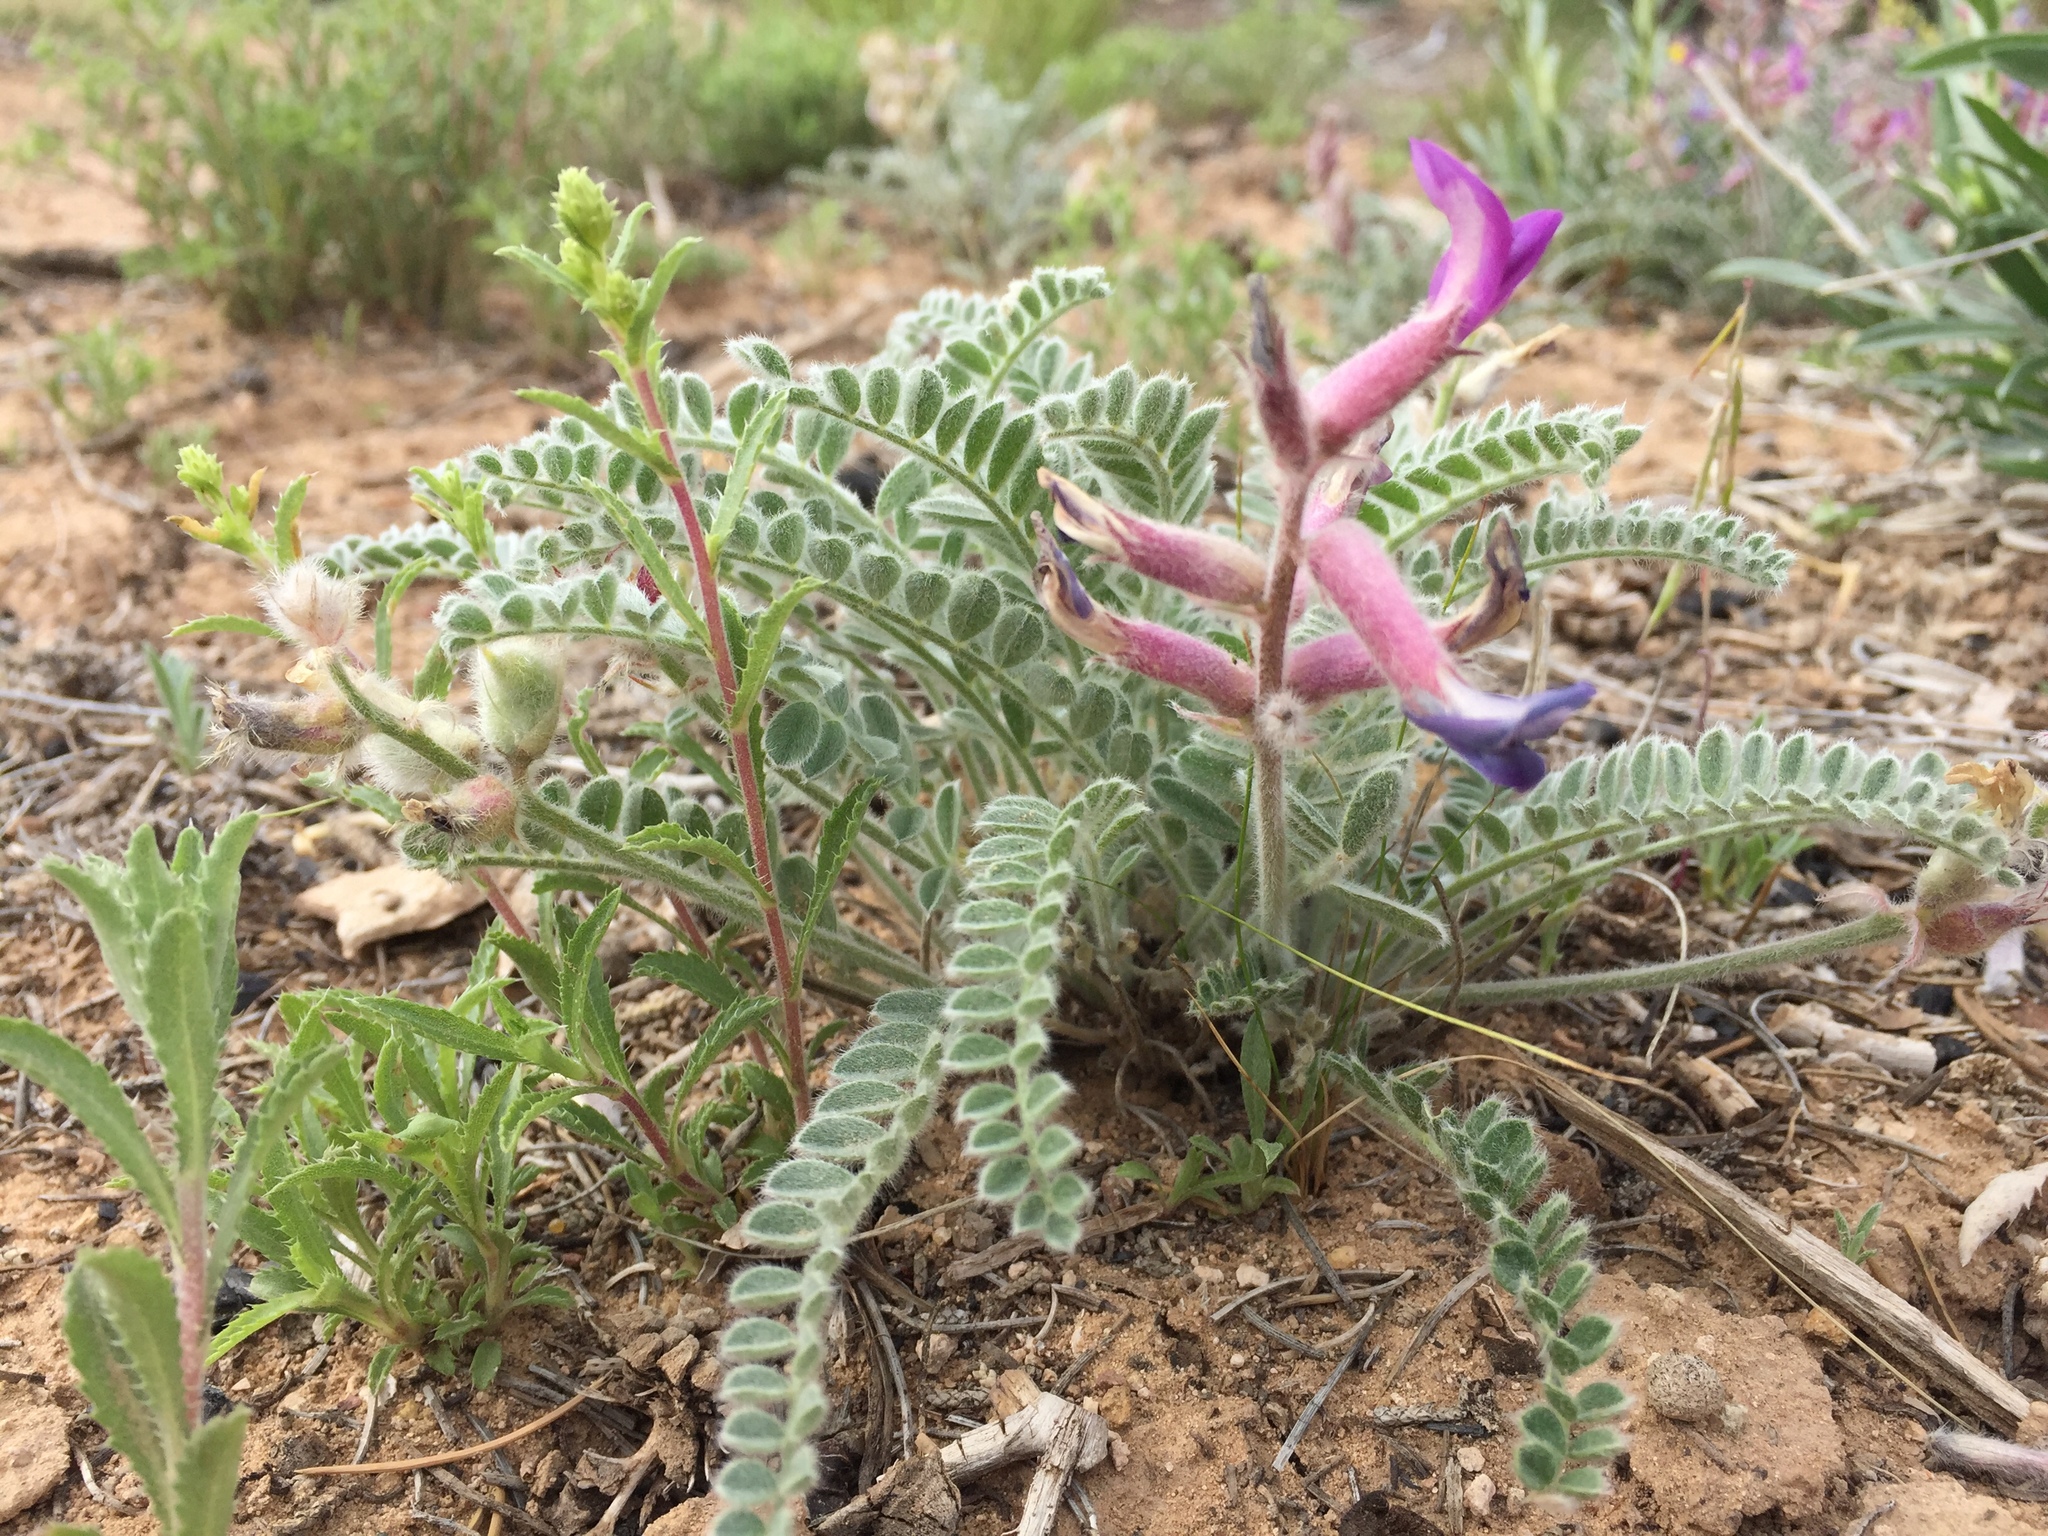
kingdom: Plantae
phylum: Tracheophyta
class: Magnoliopsida
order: Fabales
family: Fabaceae
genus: Astragalus
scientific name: Astragalus mollissimus
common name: Woolly locoweed
